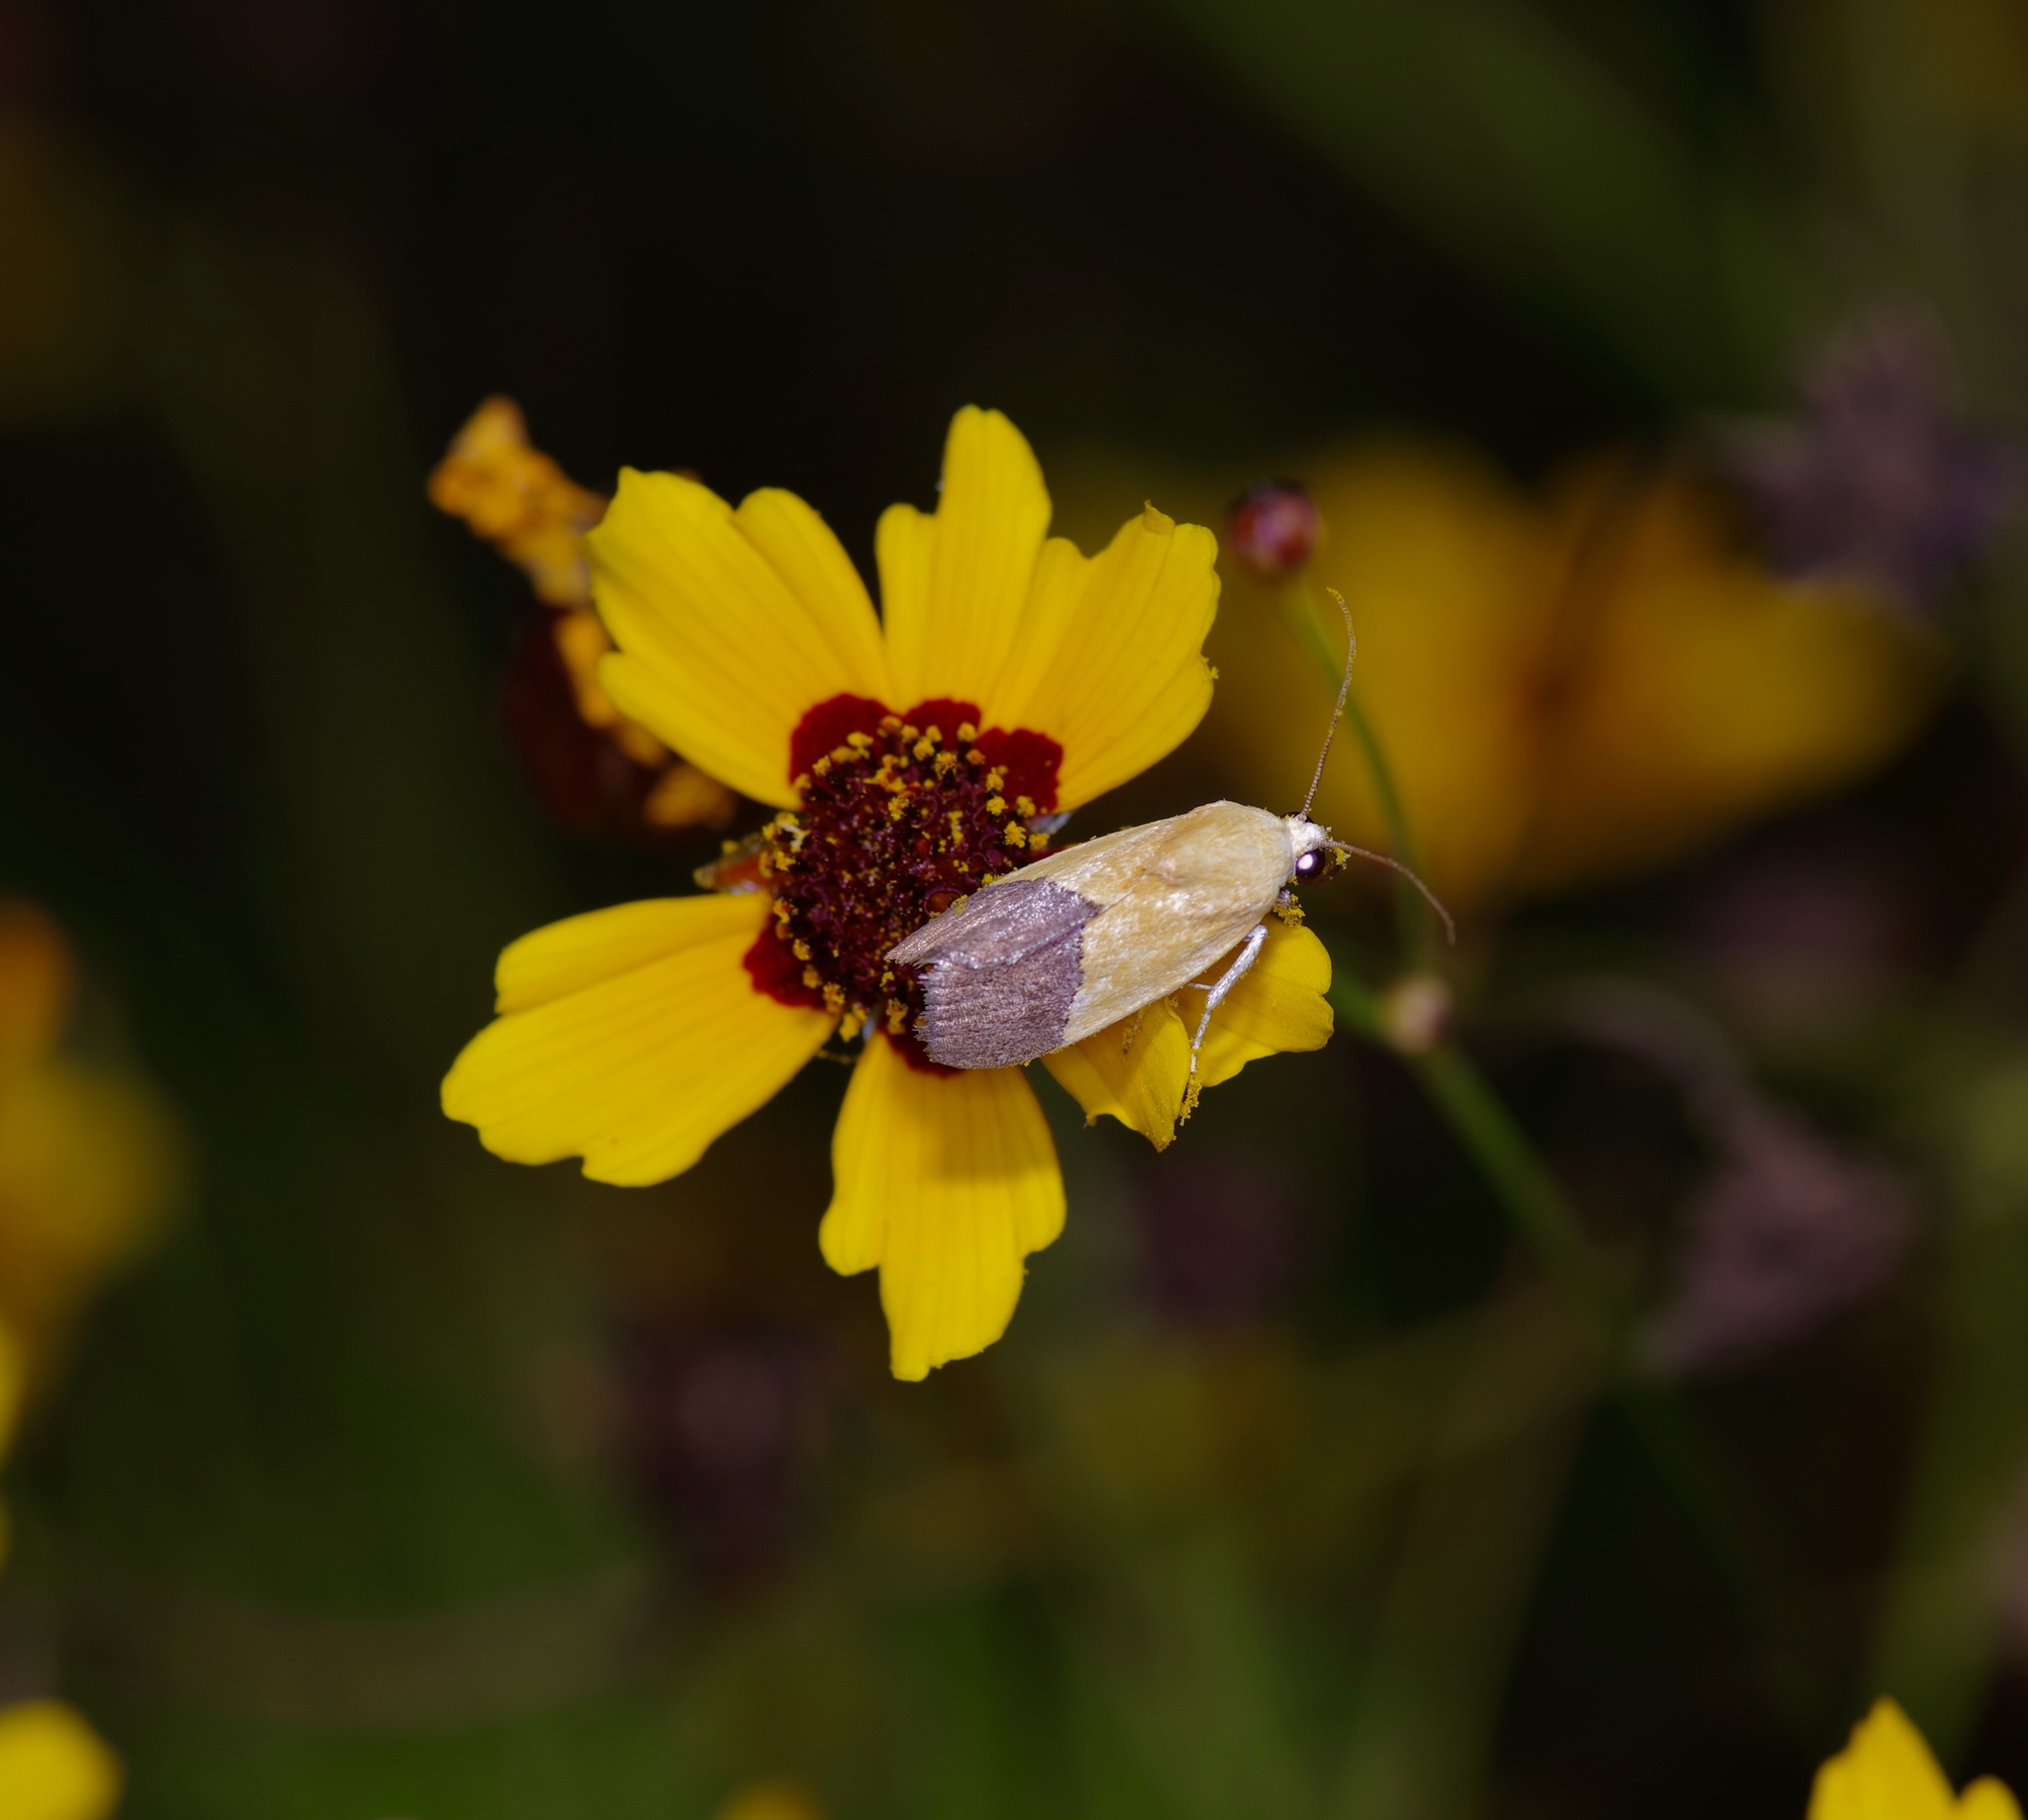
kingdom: Animalia
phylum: Arthropoda
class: Insecta
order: Lepidoptera
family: Noctuidae
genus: Acontia
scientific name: Acontia semiflava
